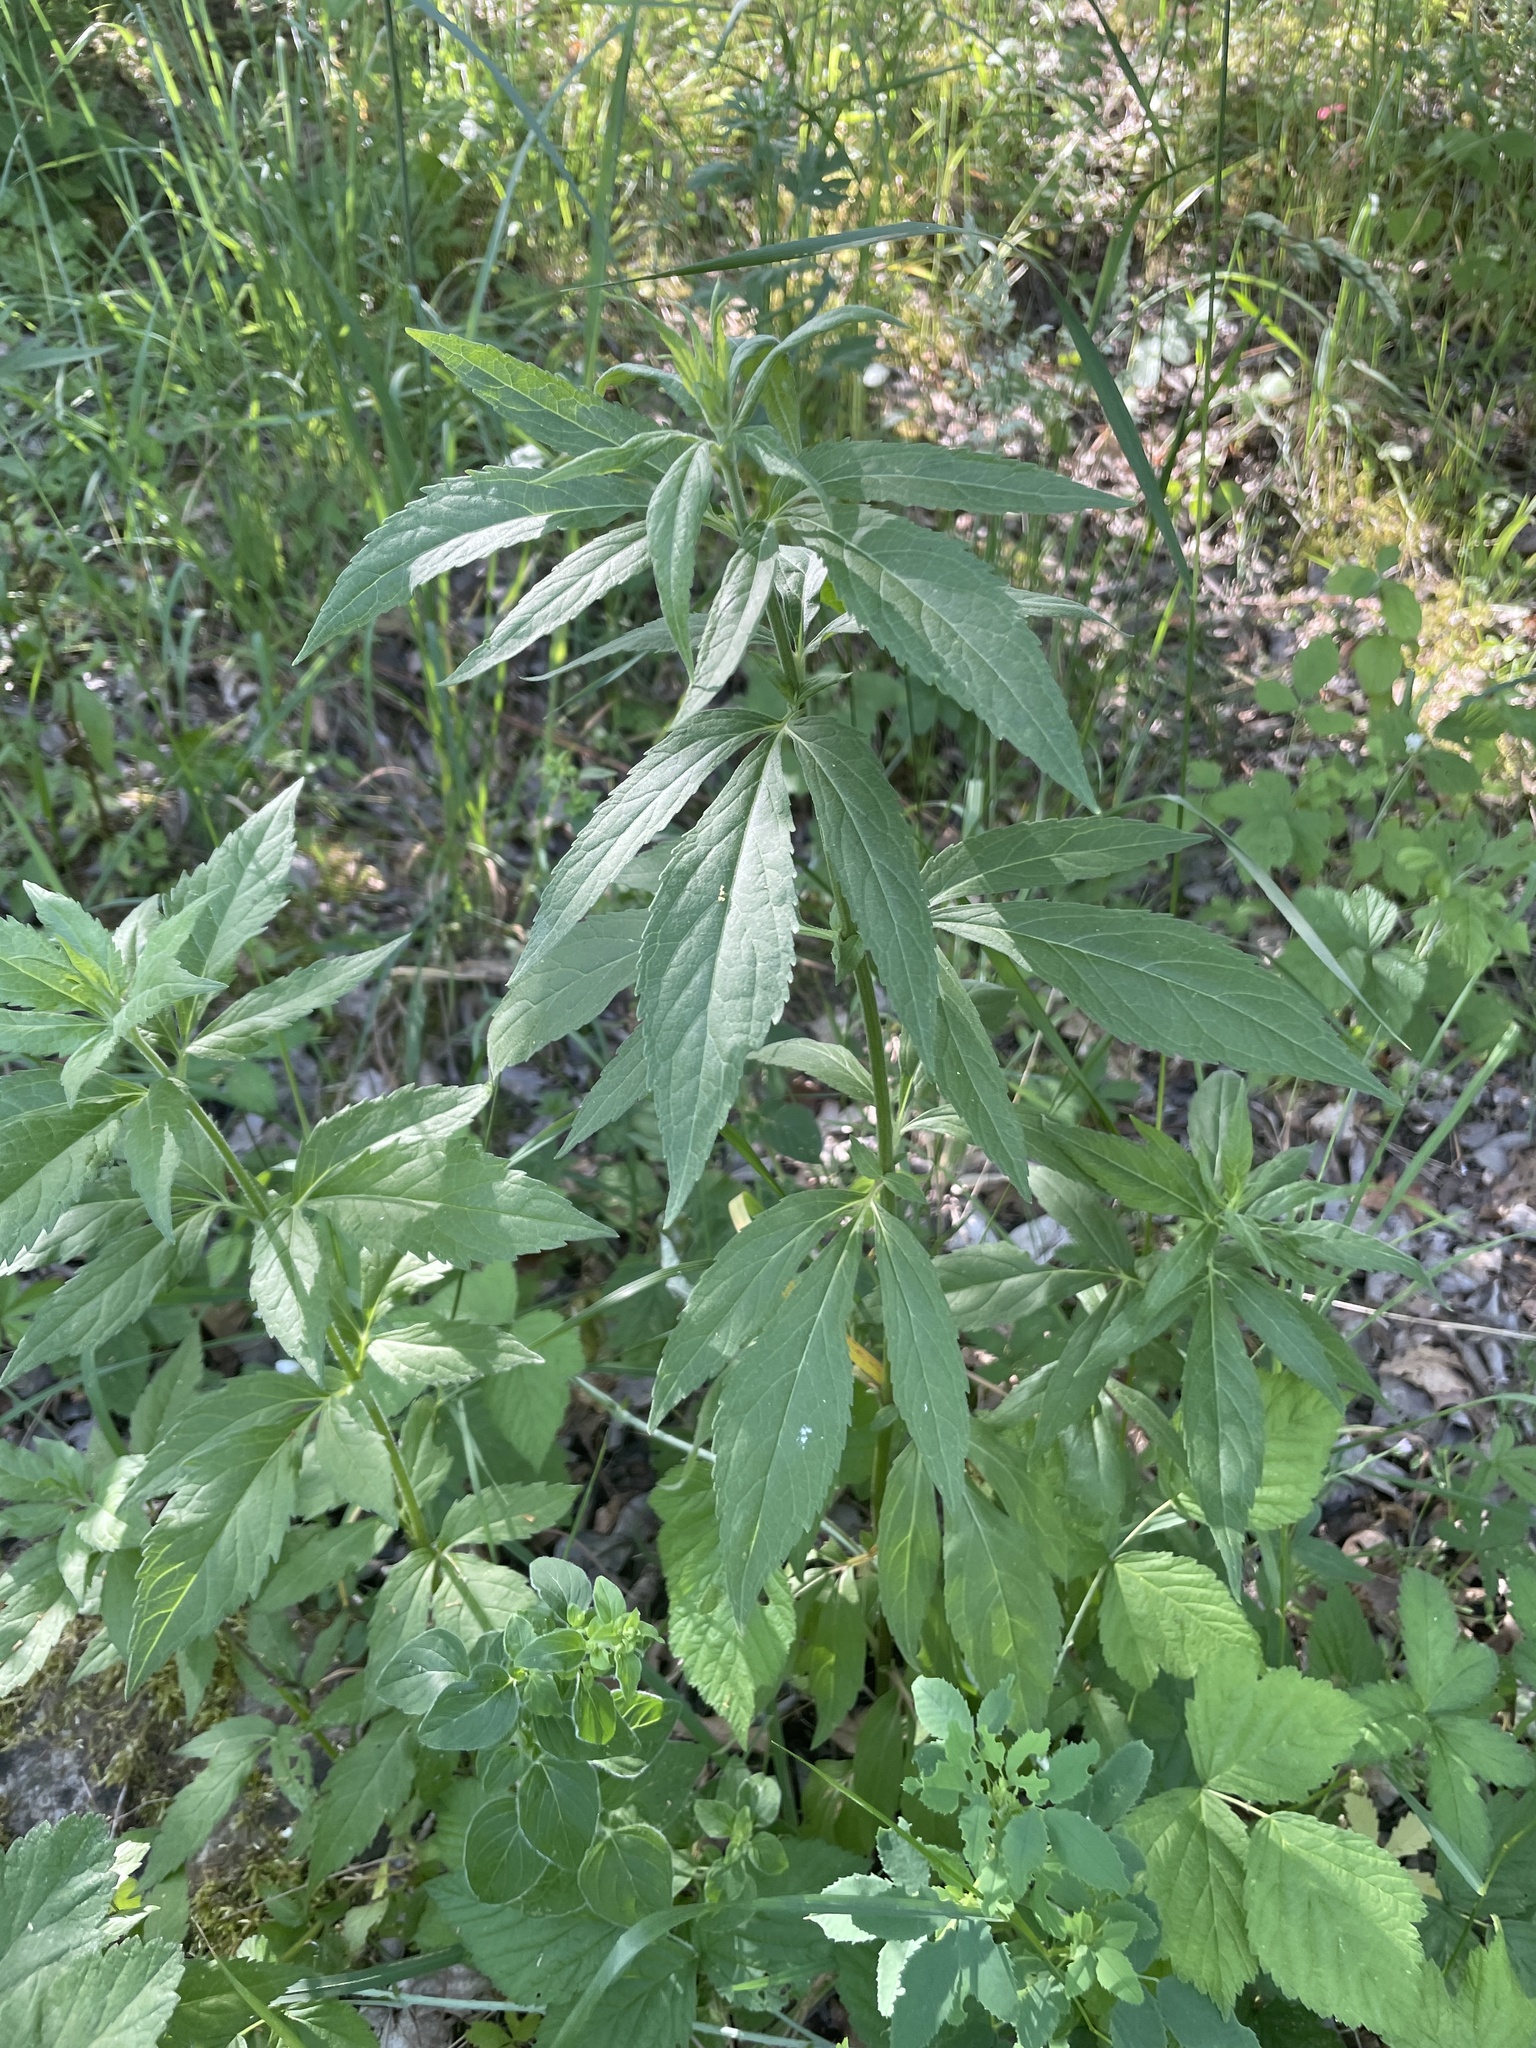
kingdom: Plantae
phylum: Tracheophyta
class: Magnoliopsida
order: Asterales
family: Asteraceae
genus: Eupatorium
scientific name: Eupatorium cannabinum
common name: Hemp-agrimony
